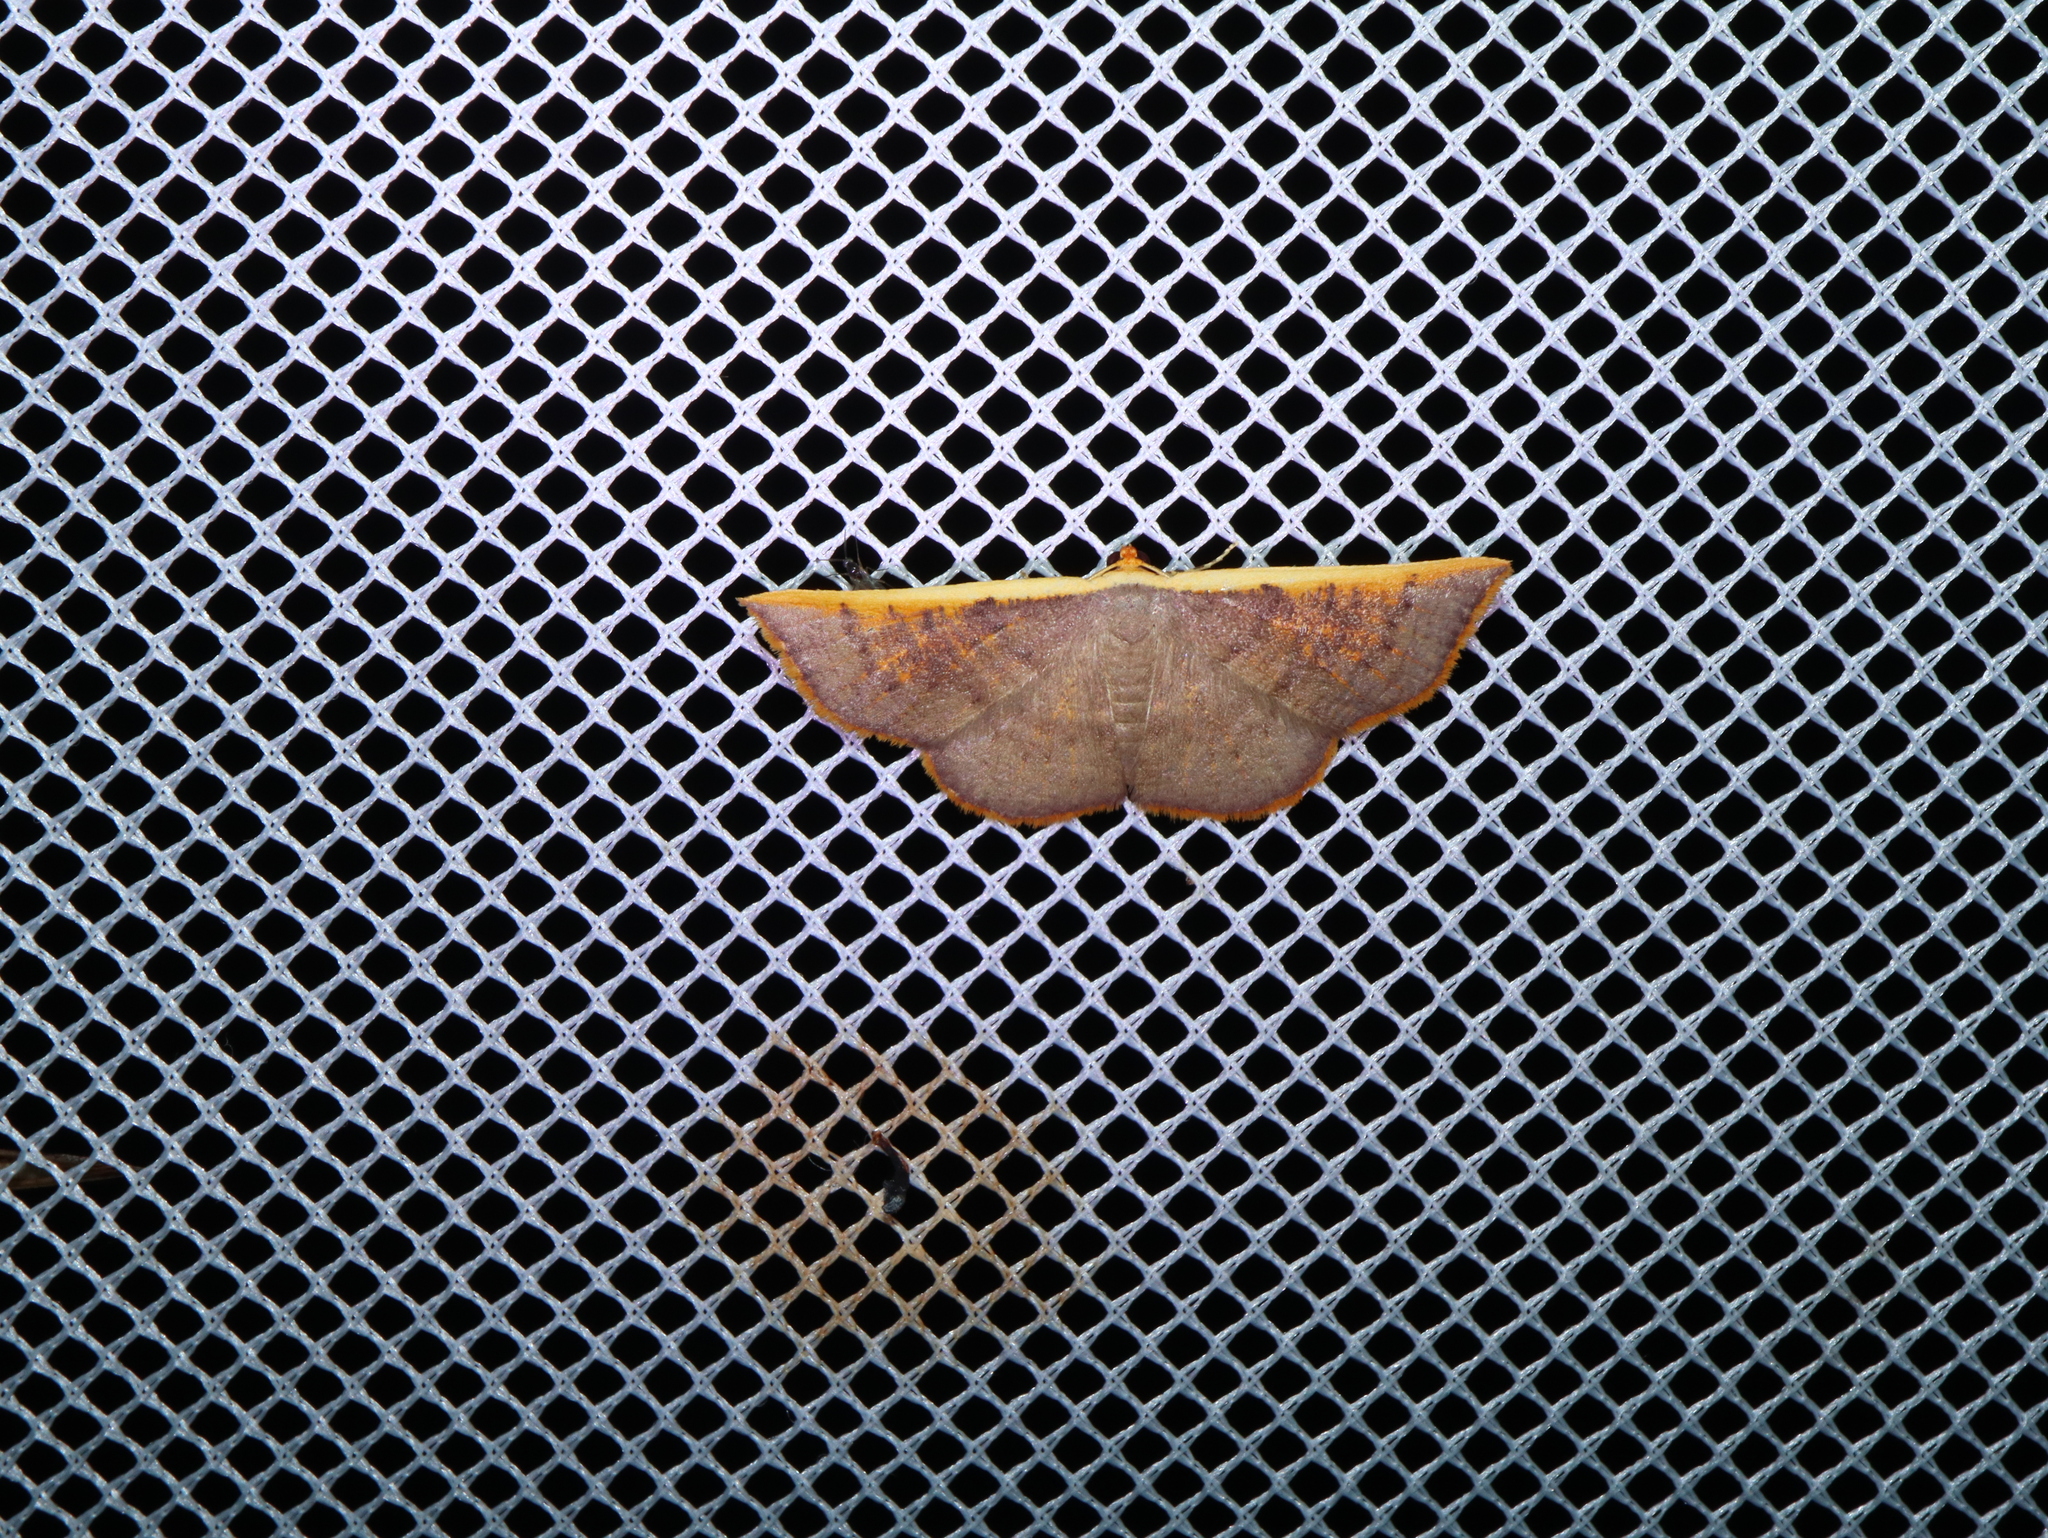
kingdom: Animalia
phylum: Arthropoda
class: Insecta
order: Lepidoptera
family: Geometridae
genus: Picromorpha
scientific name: Picromorpha pyrrhopa
